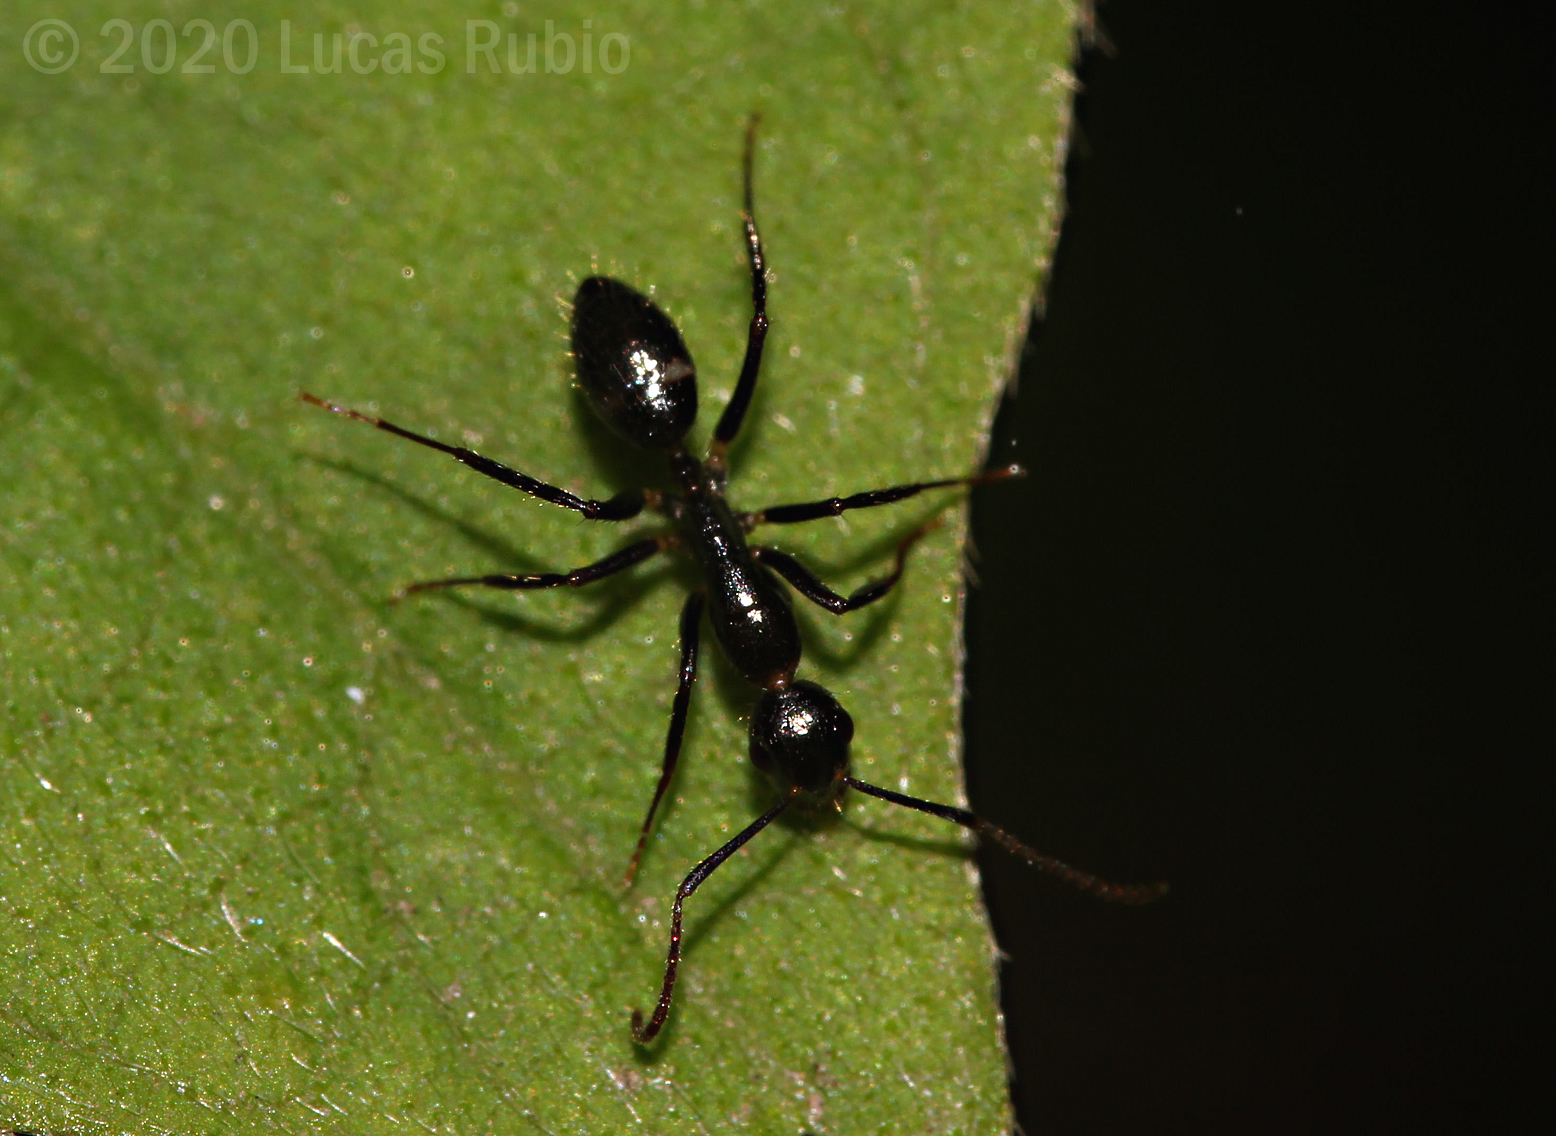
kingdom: Animalia
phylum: Arthropoda
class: Insecta
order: Hymenoptera
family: Formicidae
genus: Camponotus
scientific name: Camponotus sexguttatus
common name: Neotropical carpenter ant
